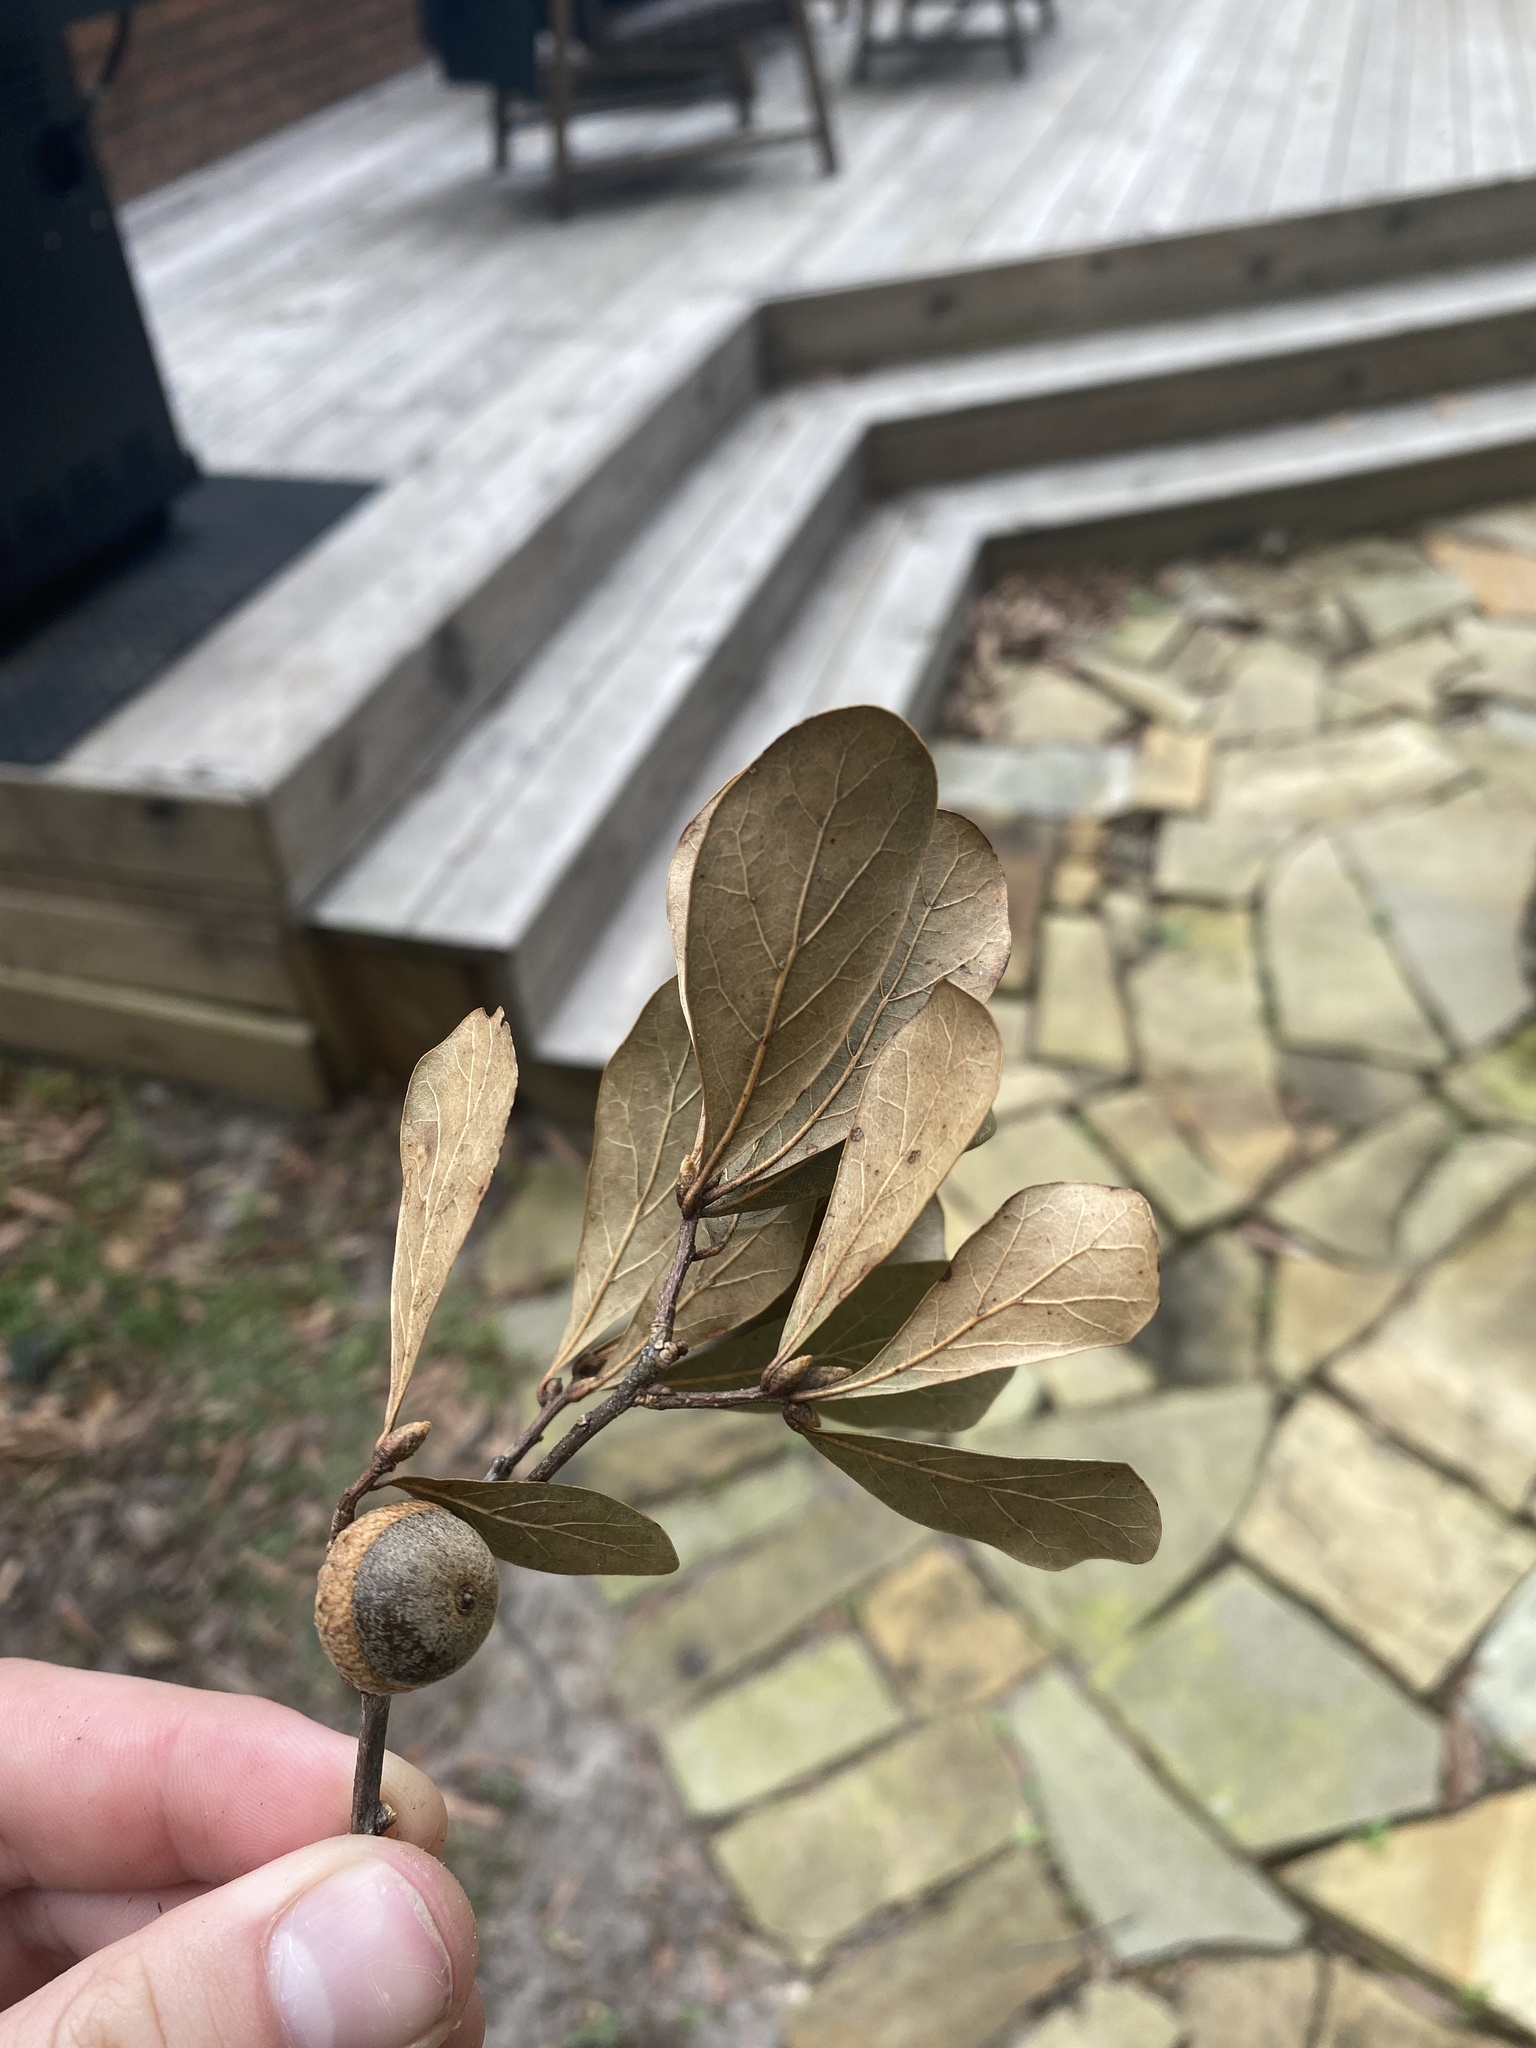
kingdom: Plantae
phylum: Tracheophyta
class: Magnoliopsida
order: Fagales
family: Fagaceae
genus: Quercus
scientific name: Quercus nigra
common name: Water oak
